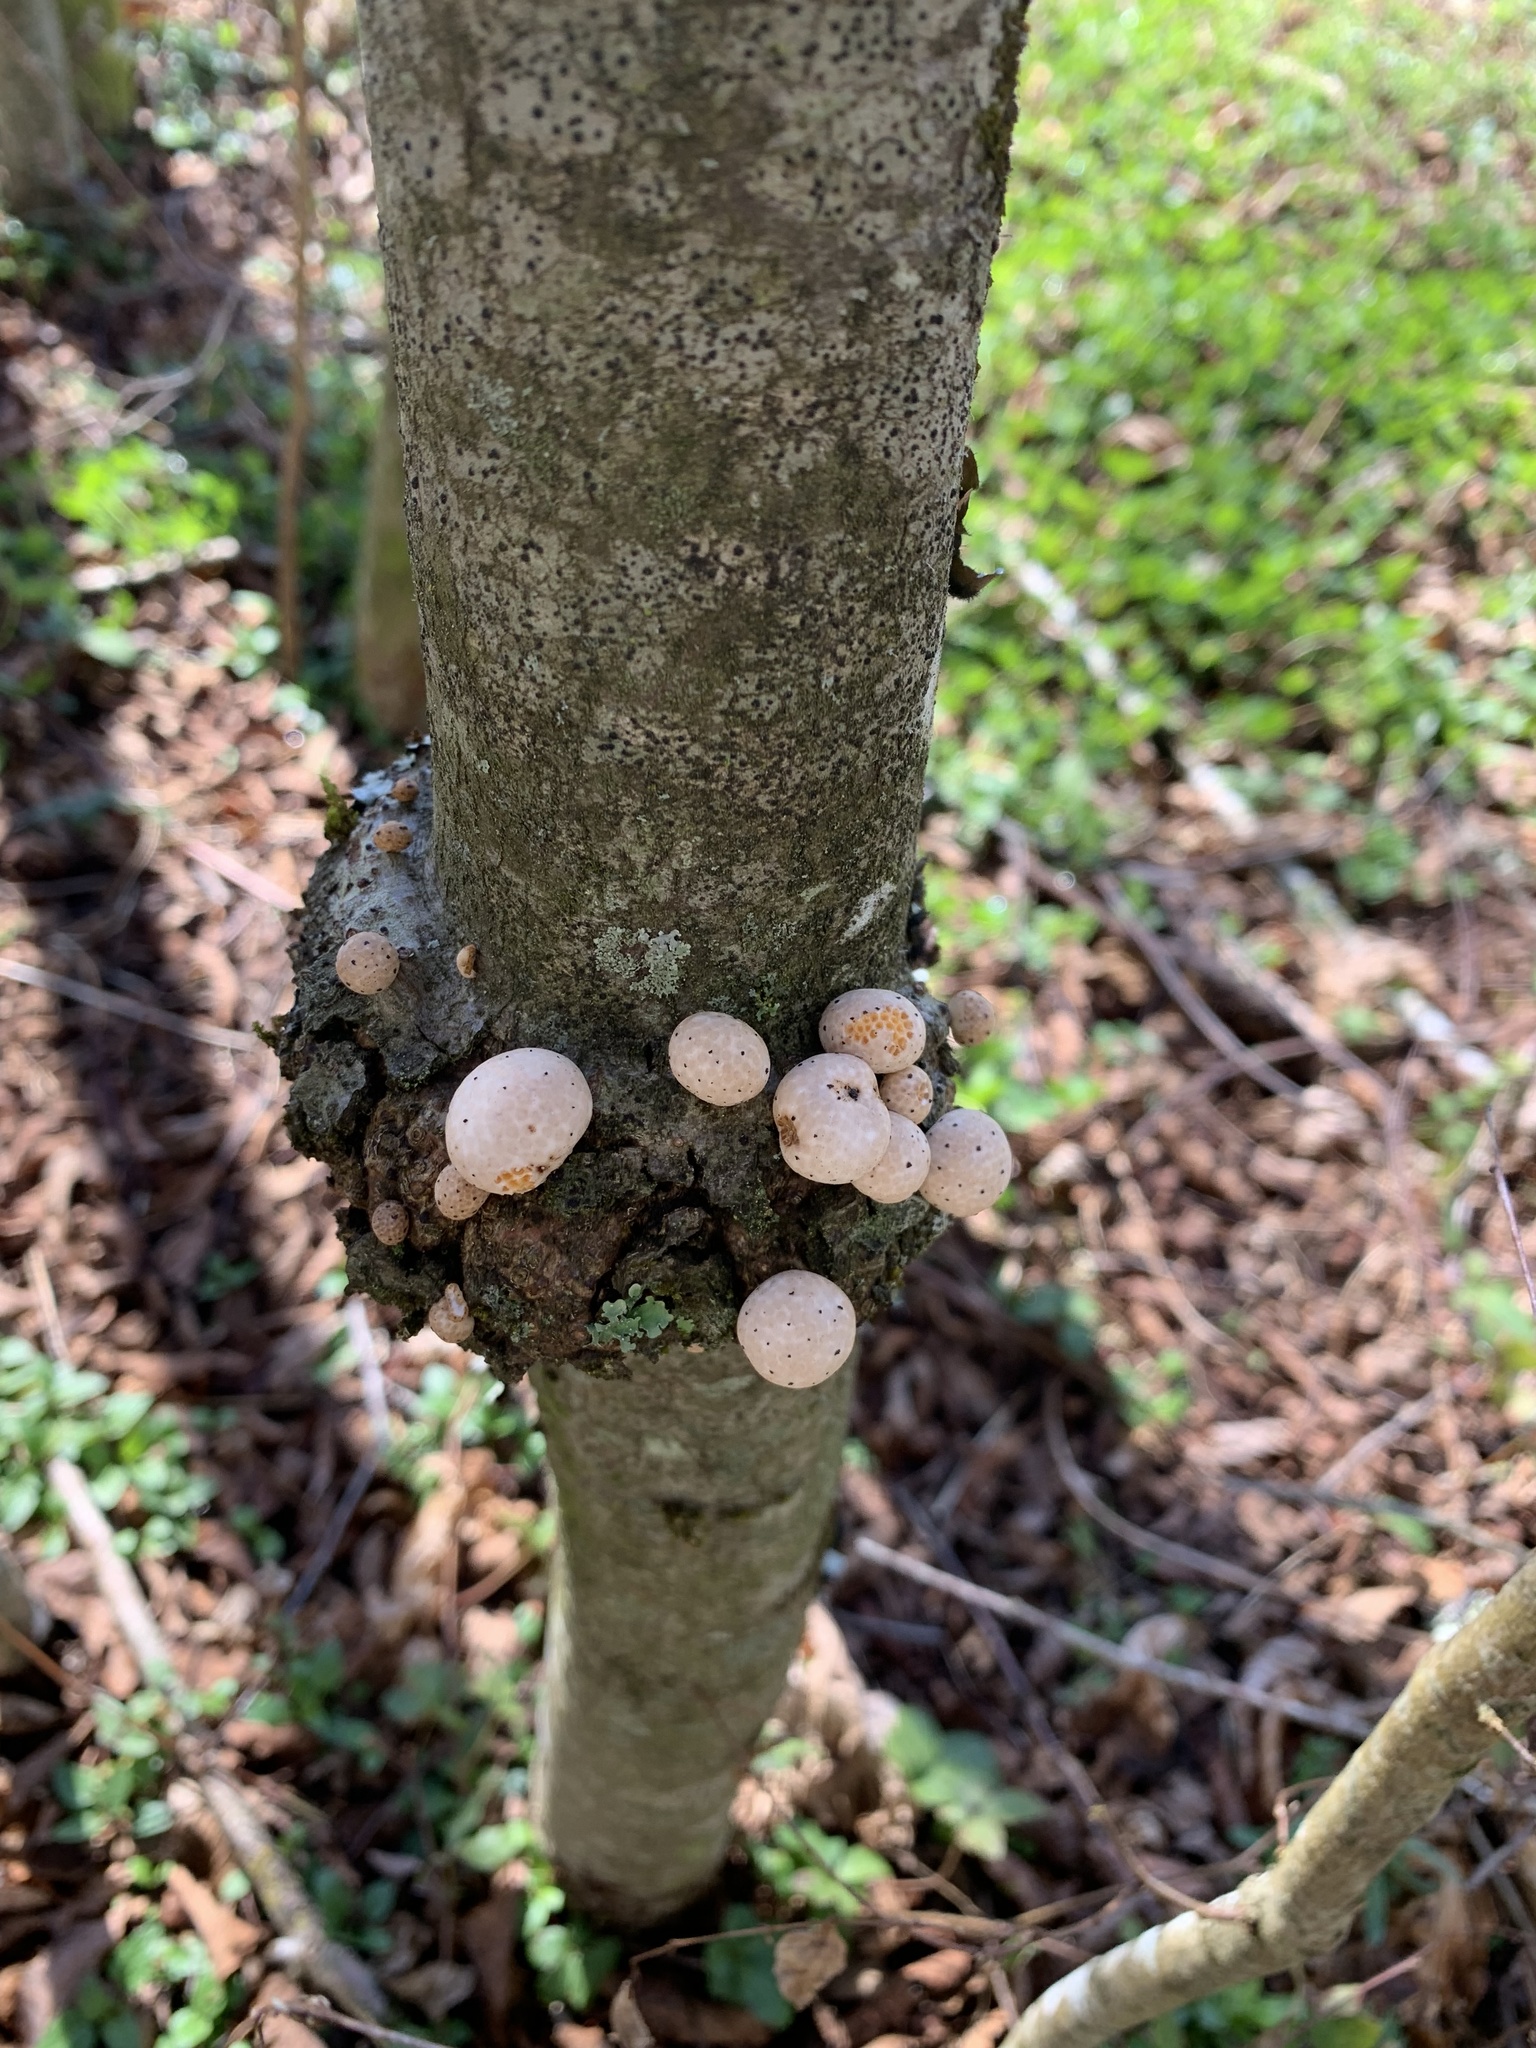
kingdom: Fungi
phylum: Ascomycota
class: Leotiomycetes
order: Cyttariales
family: Cyttariaceae
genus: Cyttaria
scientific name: Cyttaria espinosae
